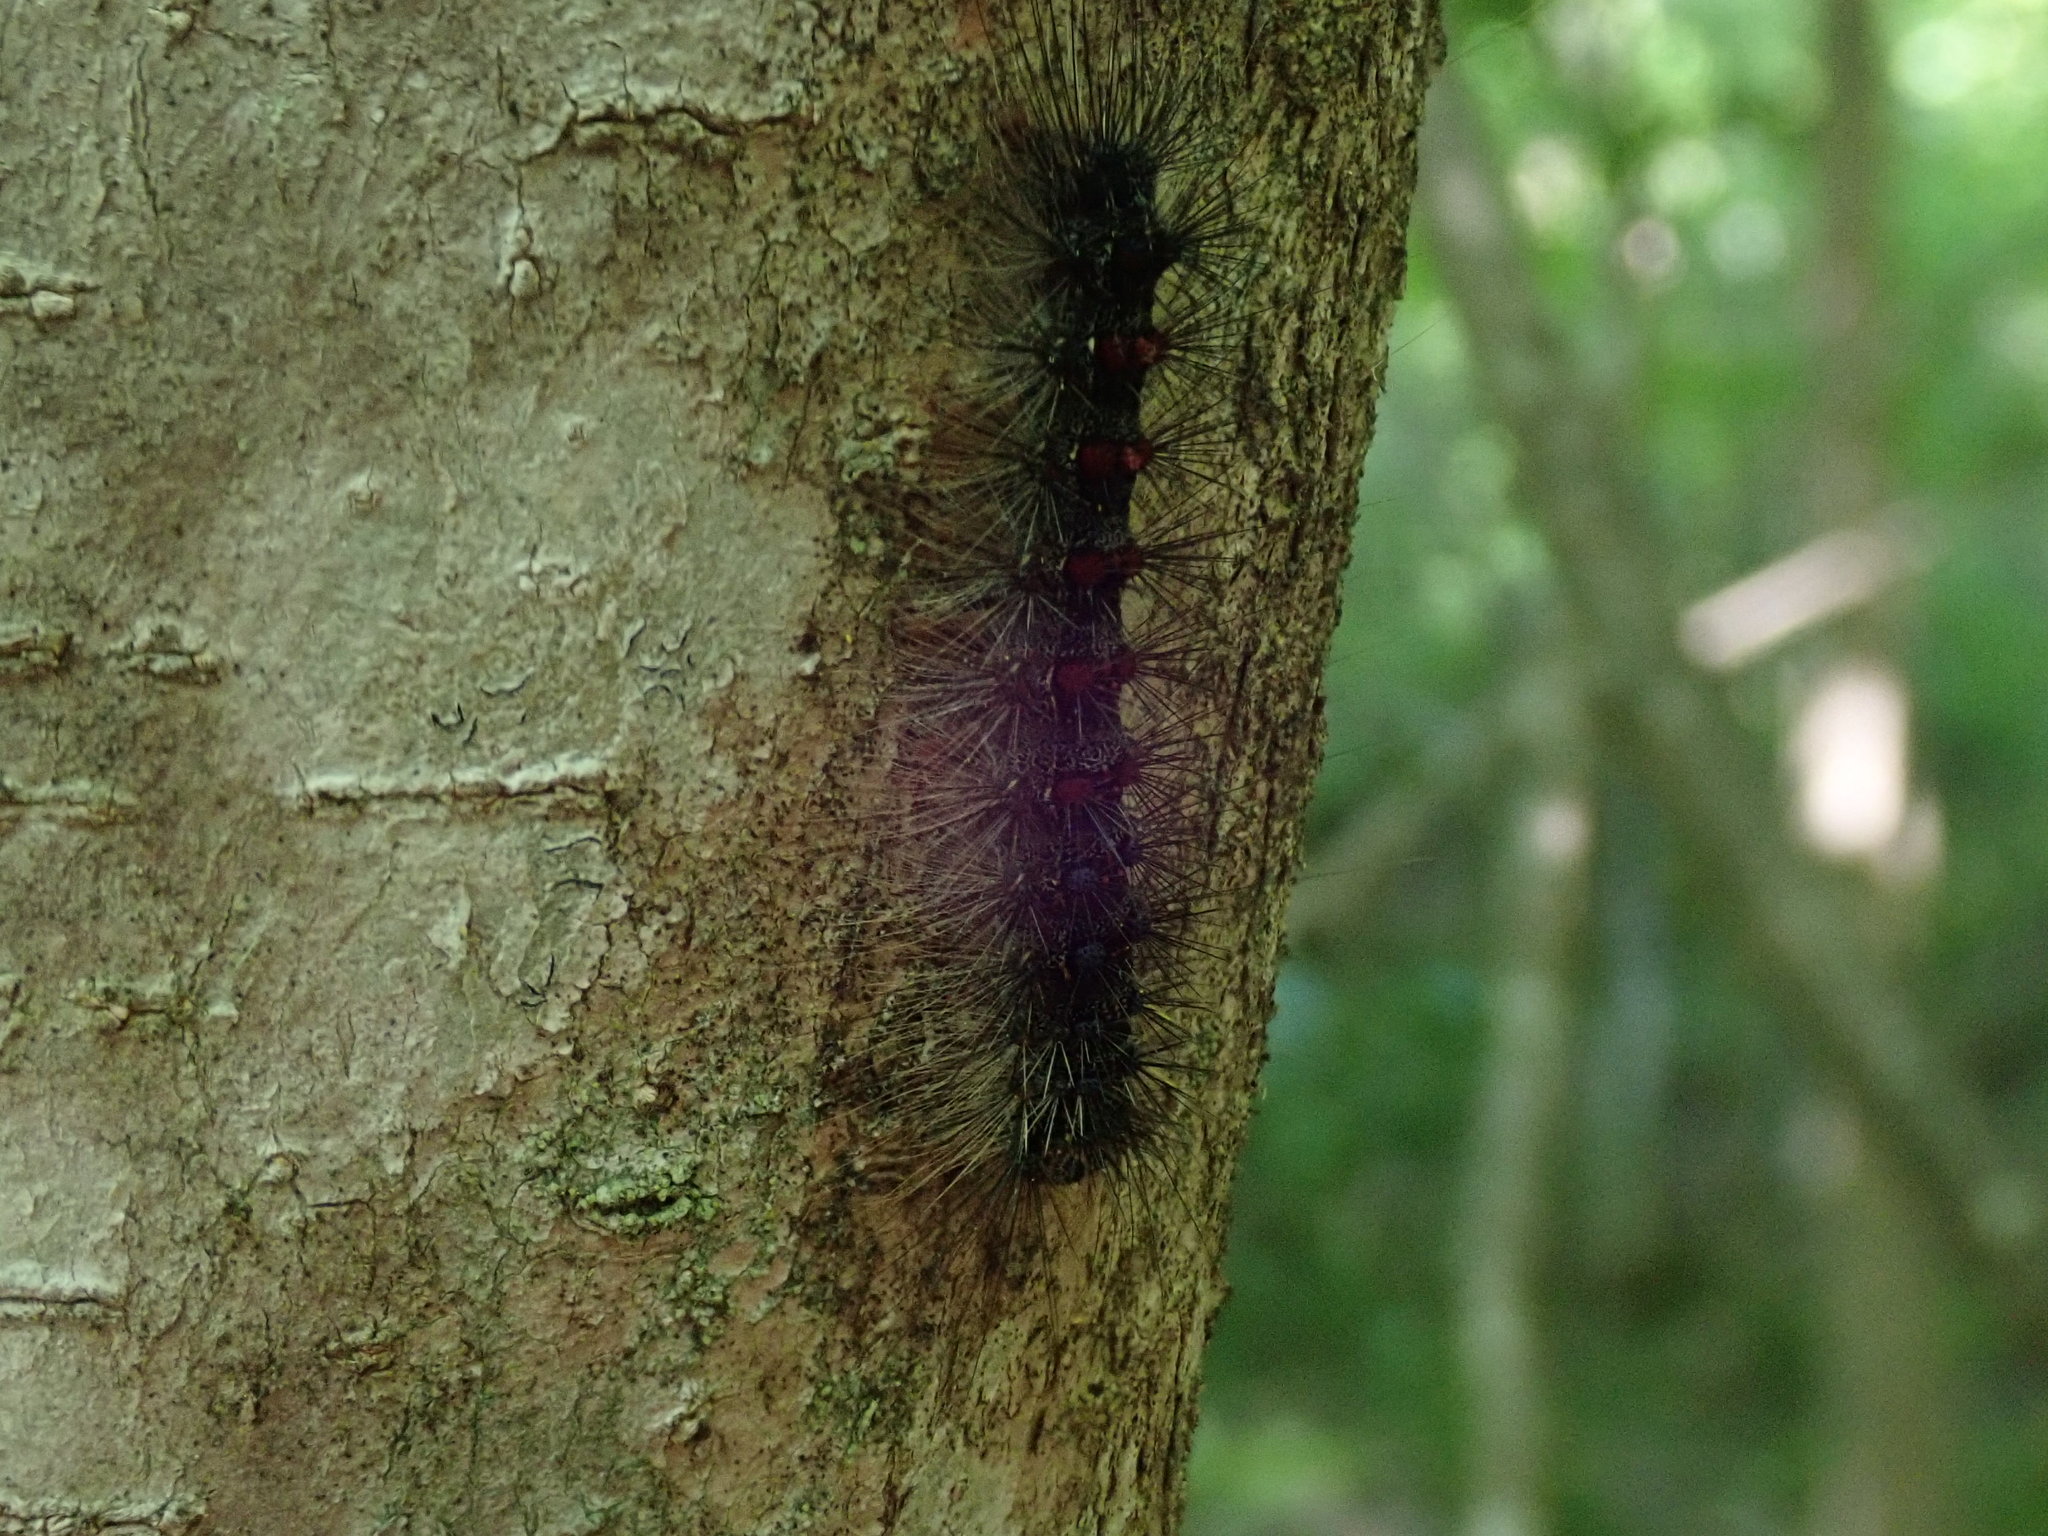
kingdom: Animalia
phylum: Arthropoda
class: Insecta
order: Lepidoptera
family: Erebidae
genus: Lymantria
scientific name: Lymantria dispar
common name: Gypsy moth
